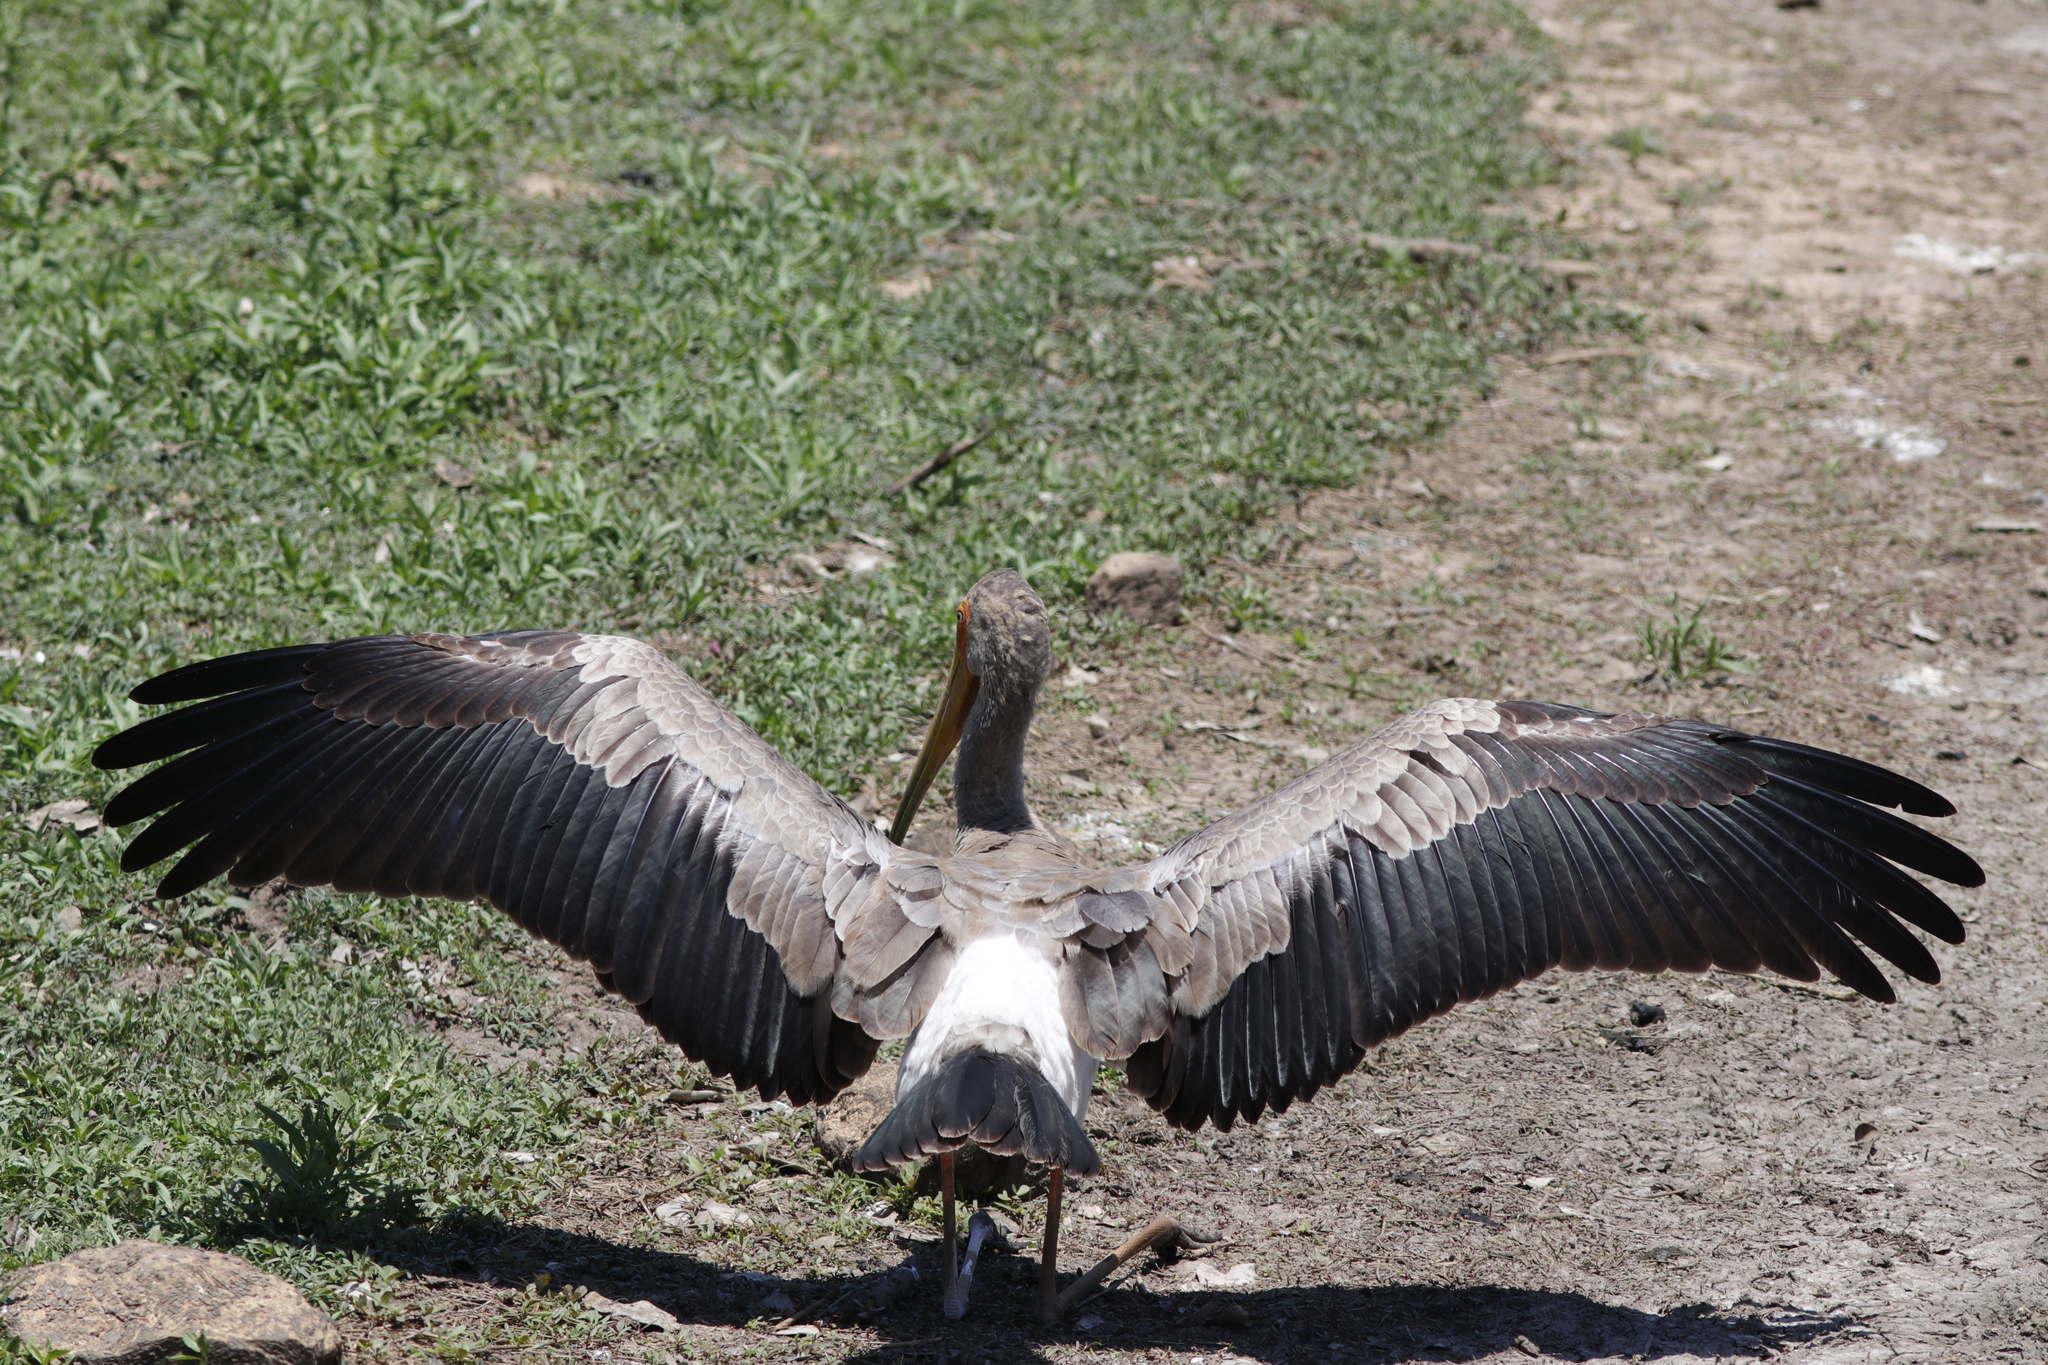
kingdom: Animalia
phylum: Chordata
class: Aves
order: Ciconiiformes
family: Ciconiidae
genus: Mycteria
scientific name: Mycteria ibis
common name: Yellow-billed stork
